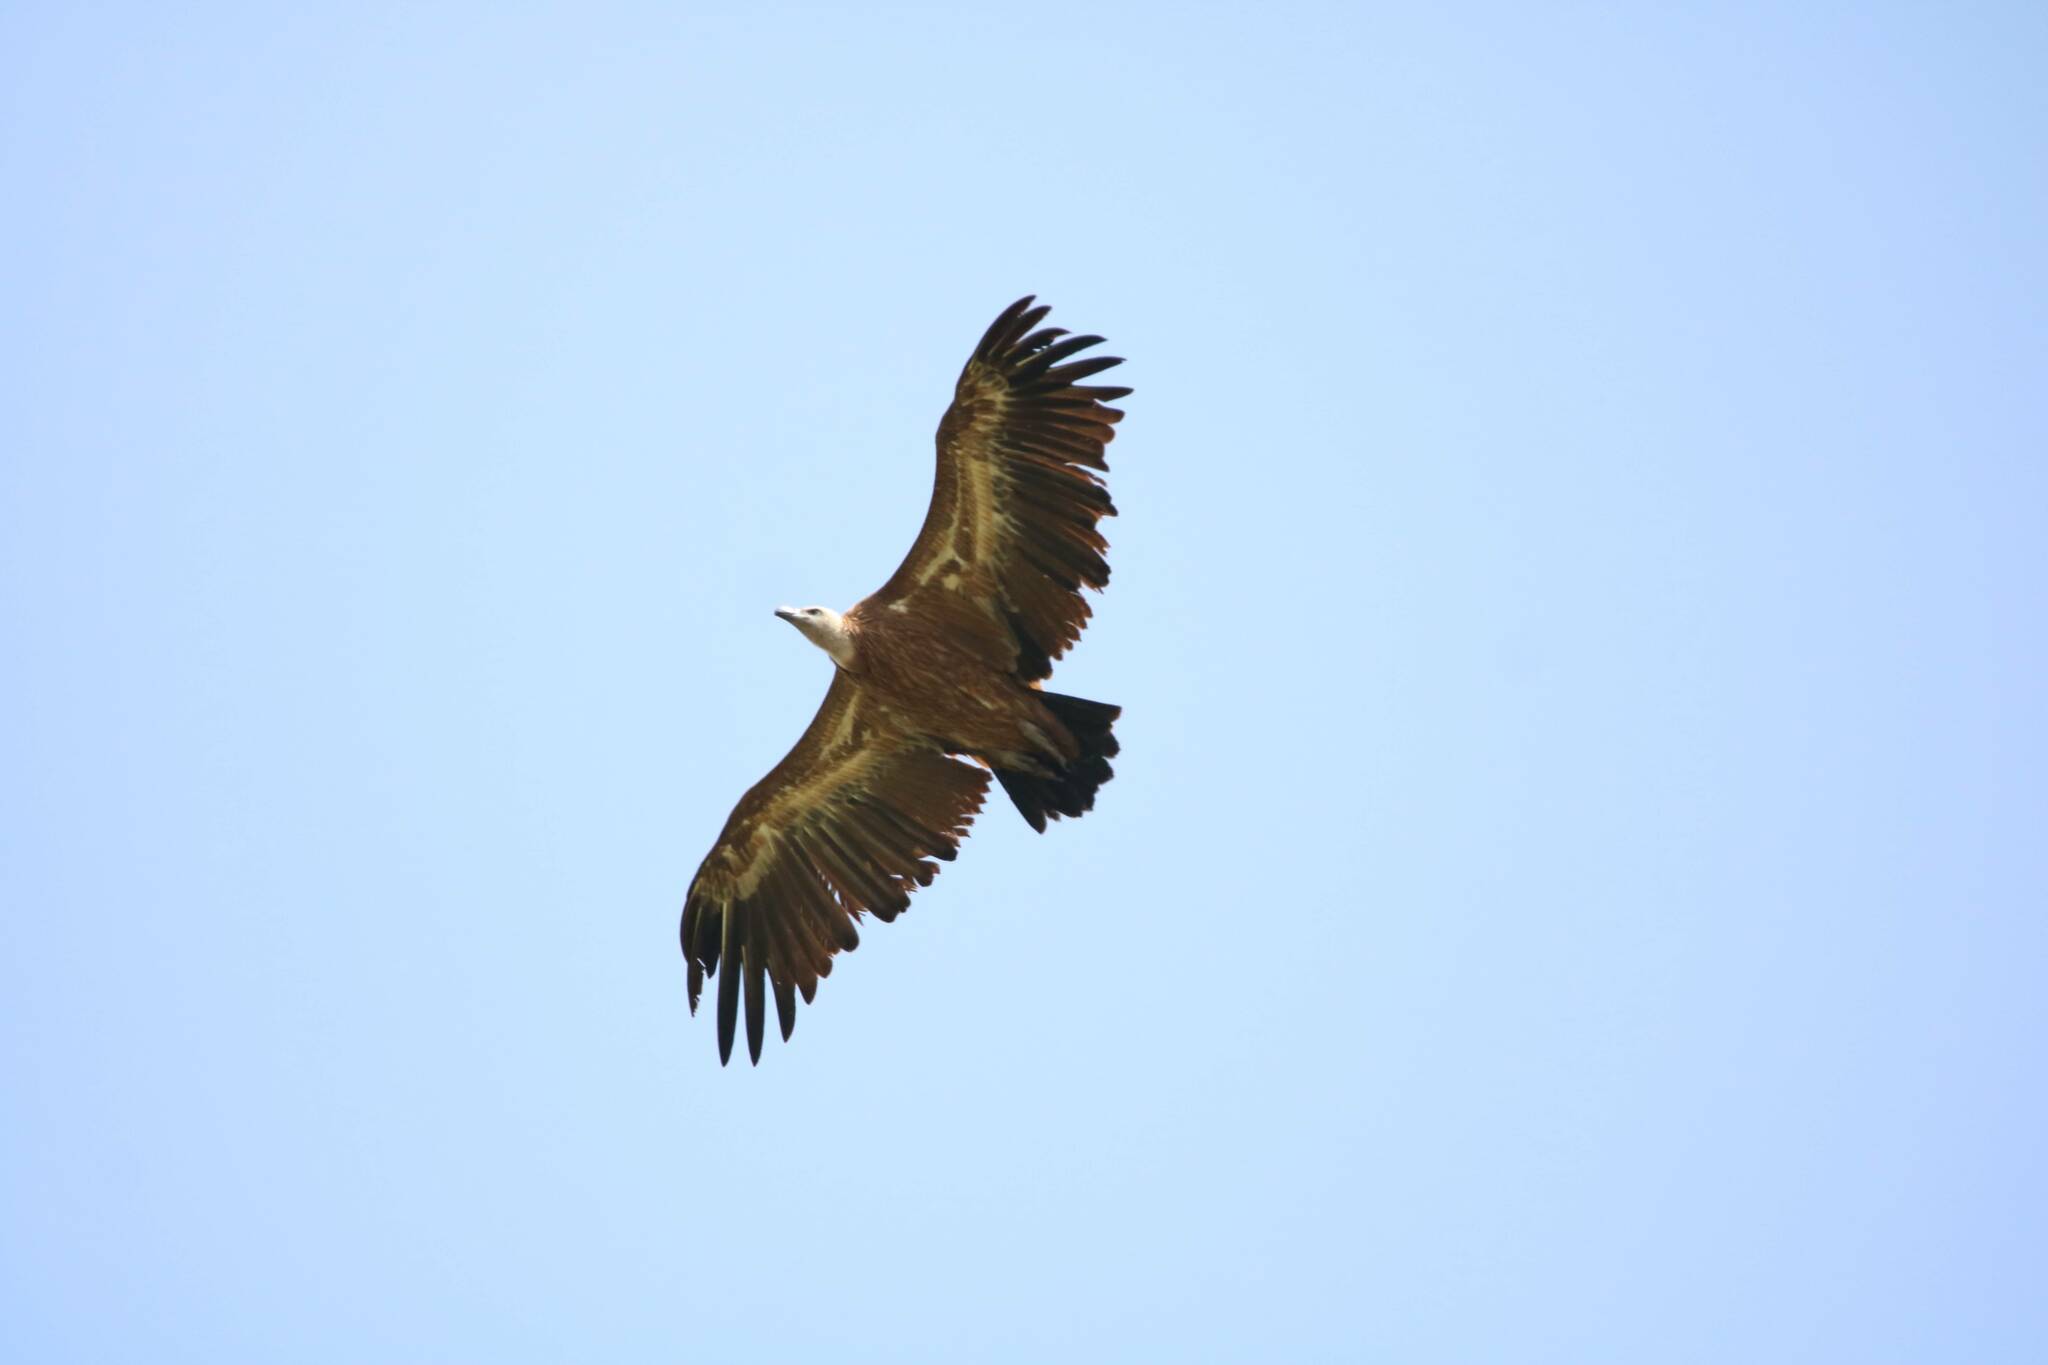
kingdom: Animalia
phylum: Chordata
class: Aves
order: Accipitriformes
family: Accipitridae
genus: Gyps
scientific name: Gyps fulvus
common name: Griffon vulture
